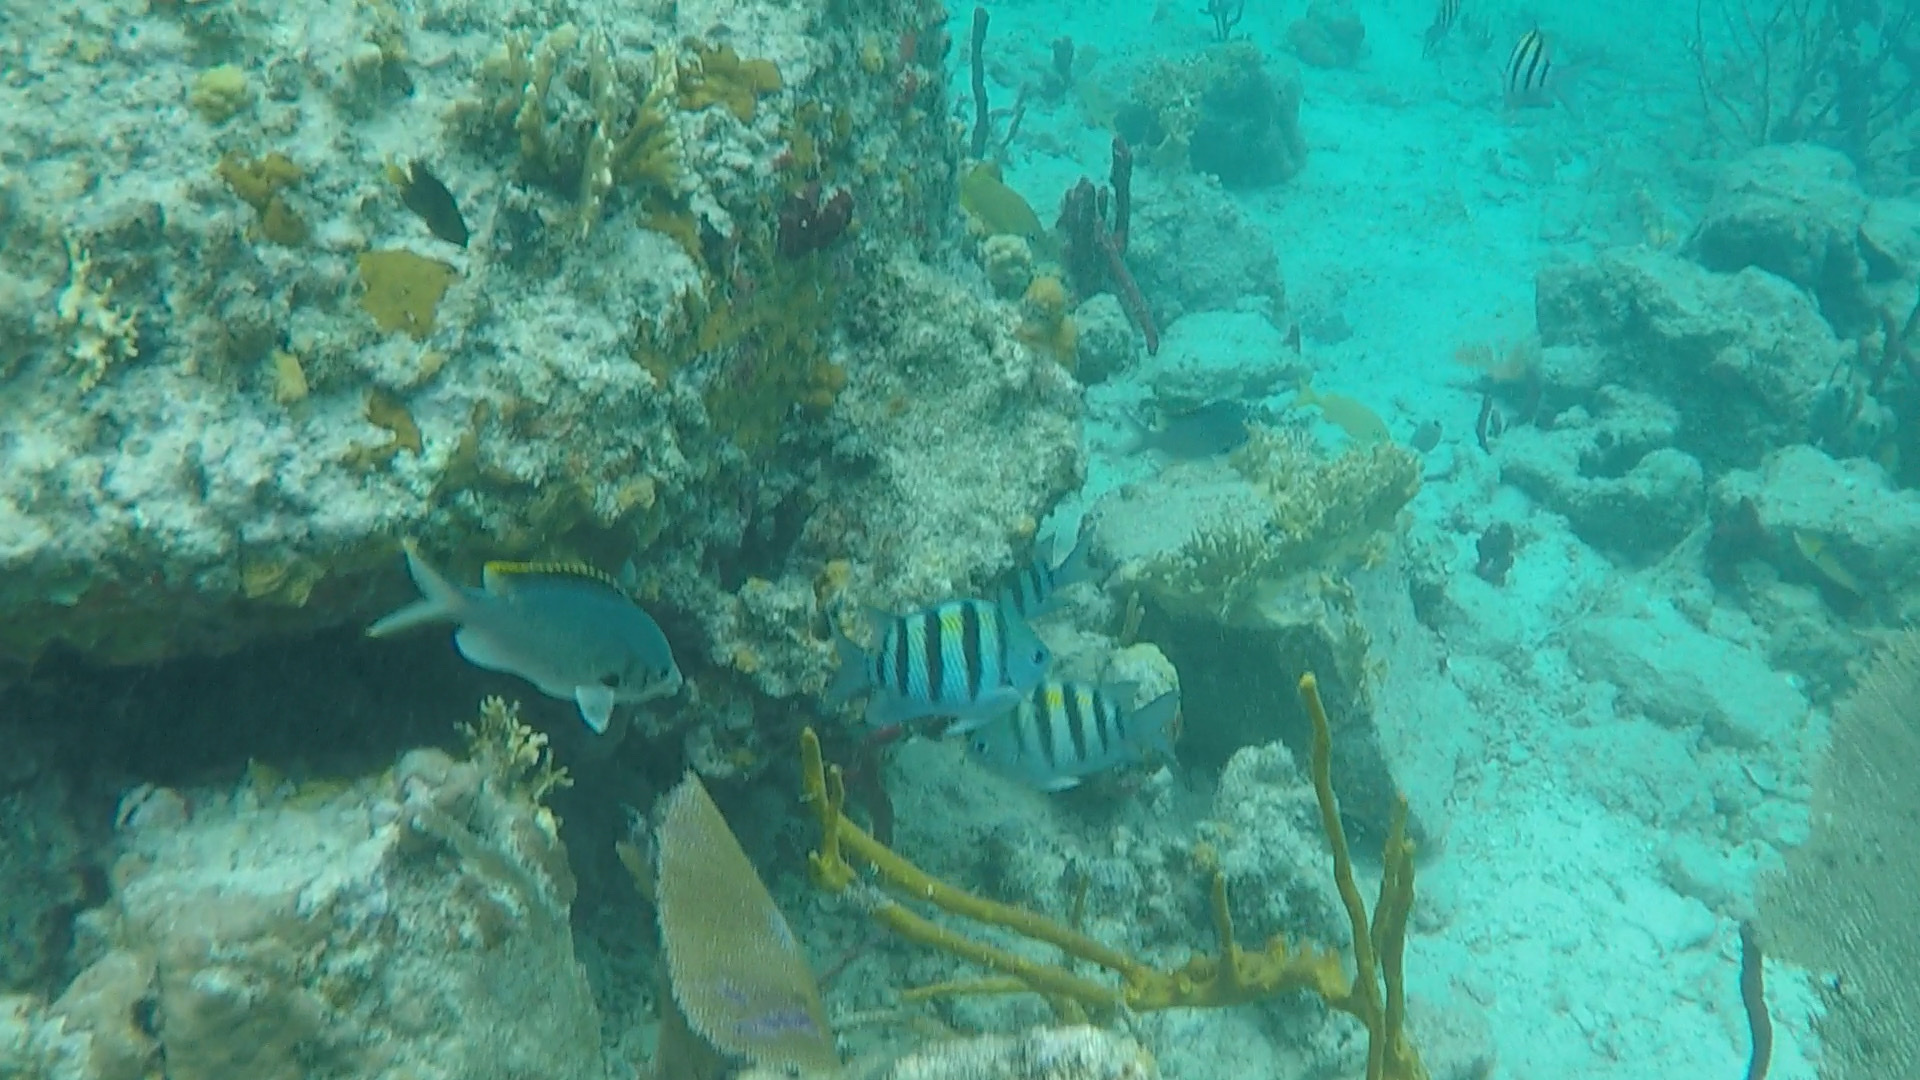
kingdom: Animalia
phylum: Chordata
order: Perciformes
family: Pomacentridae
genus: Abudefduf
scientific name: Abudefduf saxatilis
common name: Sergeant major
